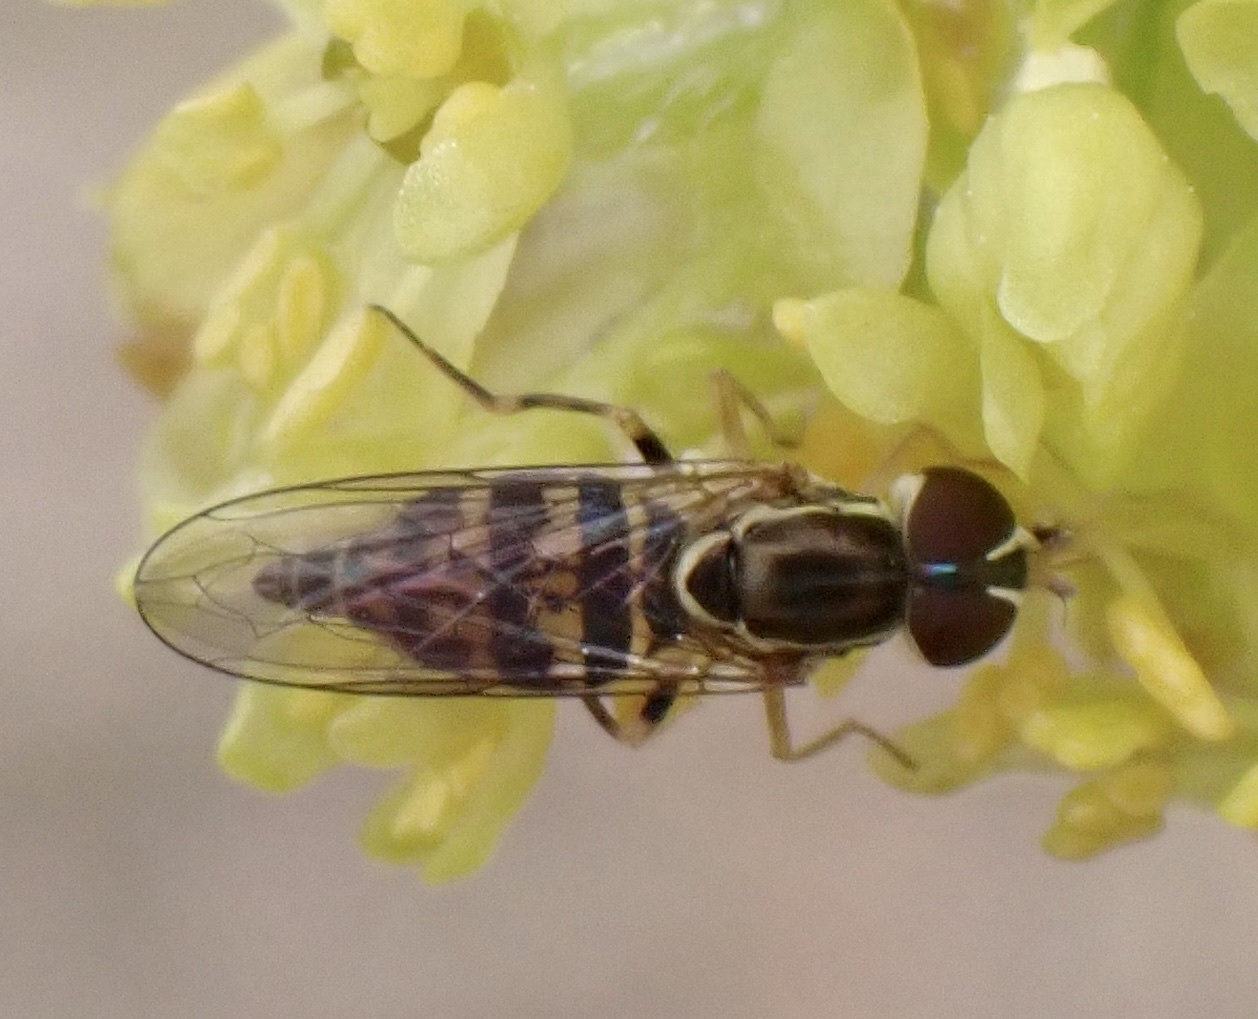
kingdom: Animalia
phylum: Arthropoda
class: Insecta
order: Diptera
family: Syrphidae
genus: Toxomerus
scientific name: Toxomerus geminatus
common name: Eastern calligrapher
